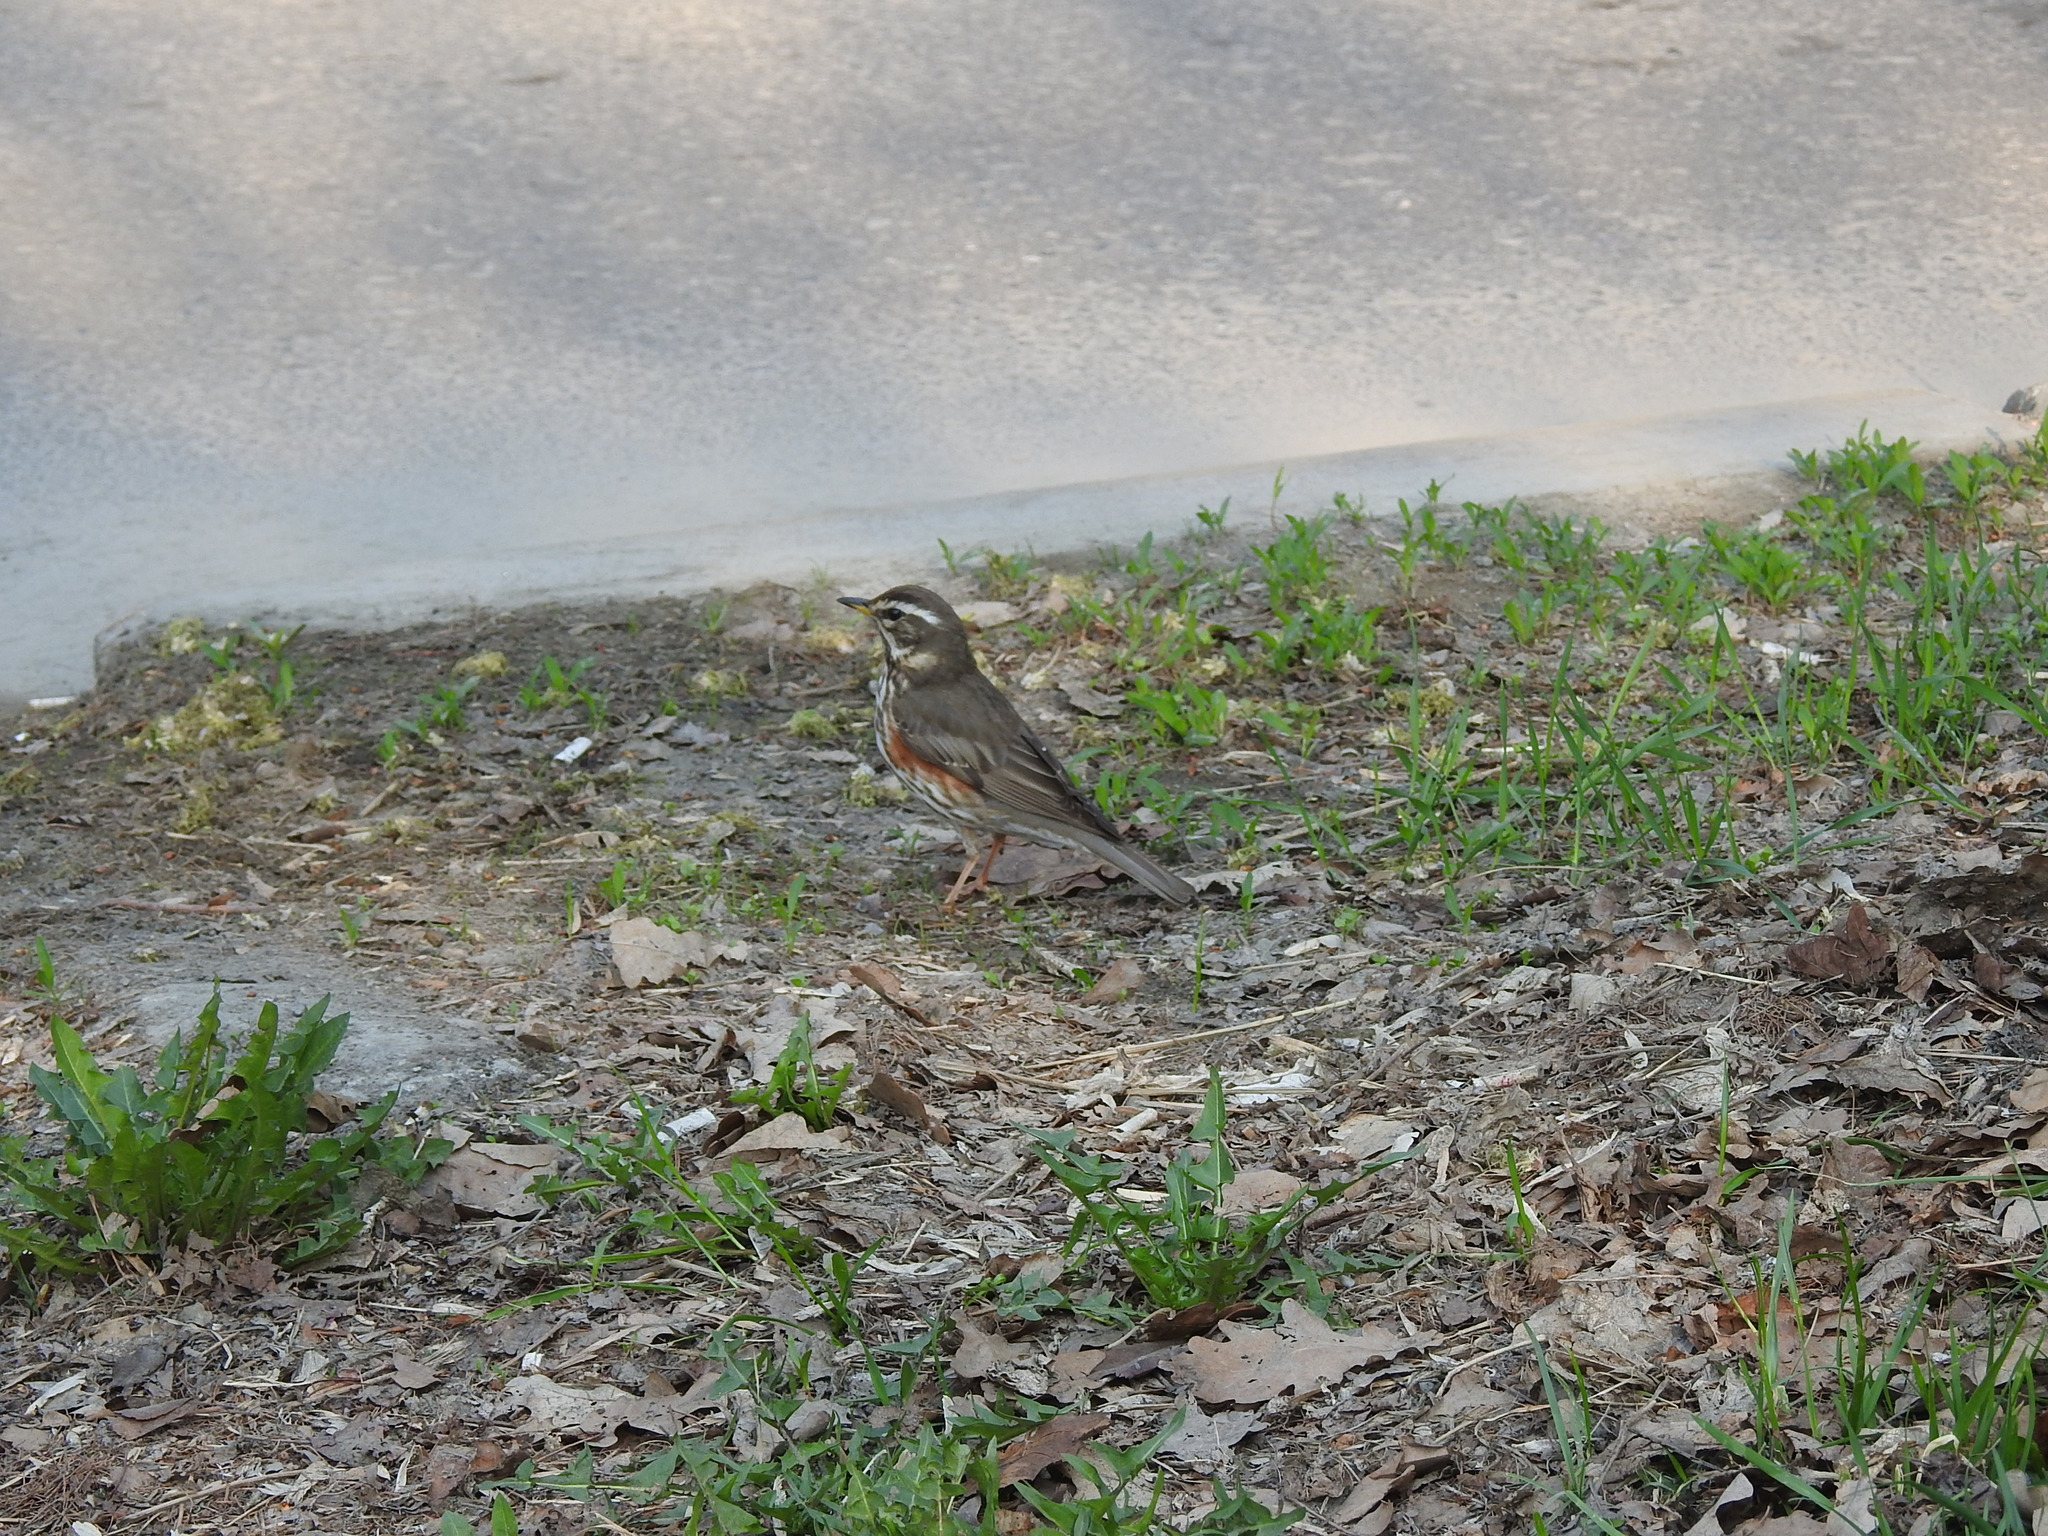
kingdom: Animalia
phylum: Chordata
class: Aves
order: Passeriformes
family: Turdidae
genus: Turdus
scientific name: Turdus iliacus
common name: Redwing
